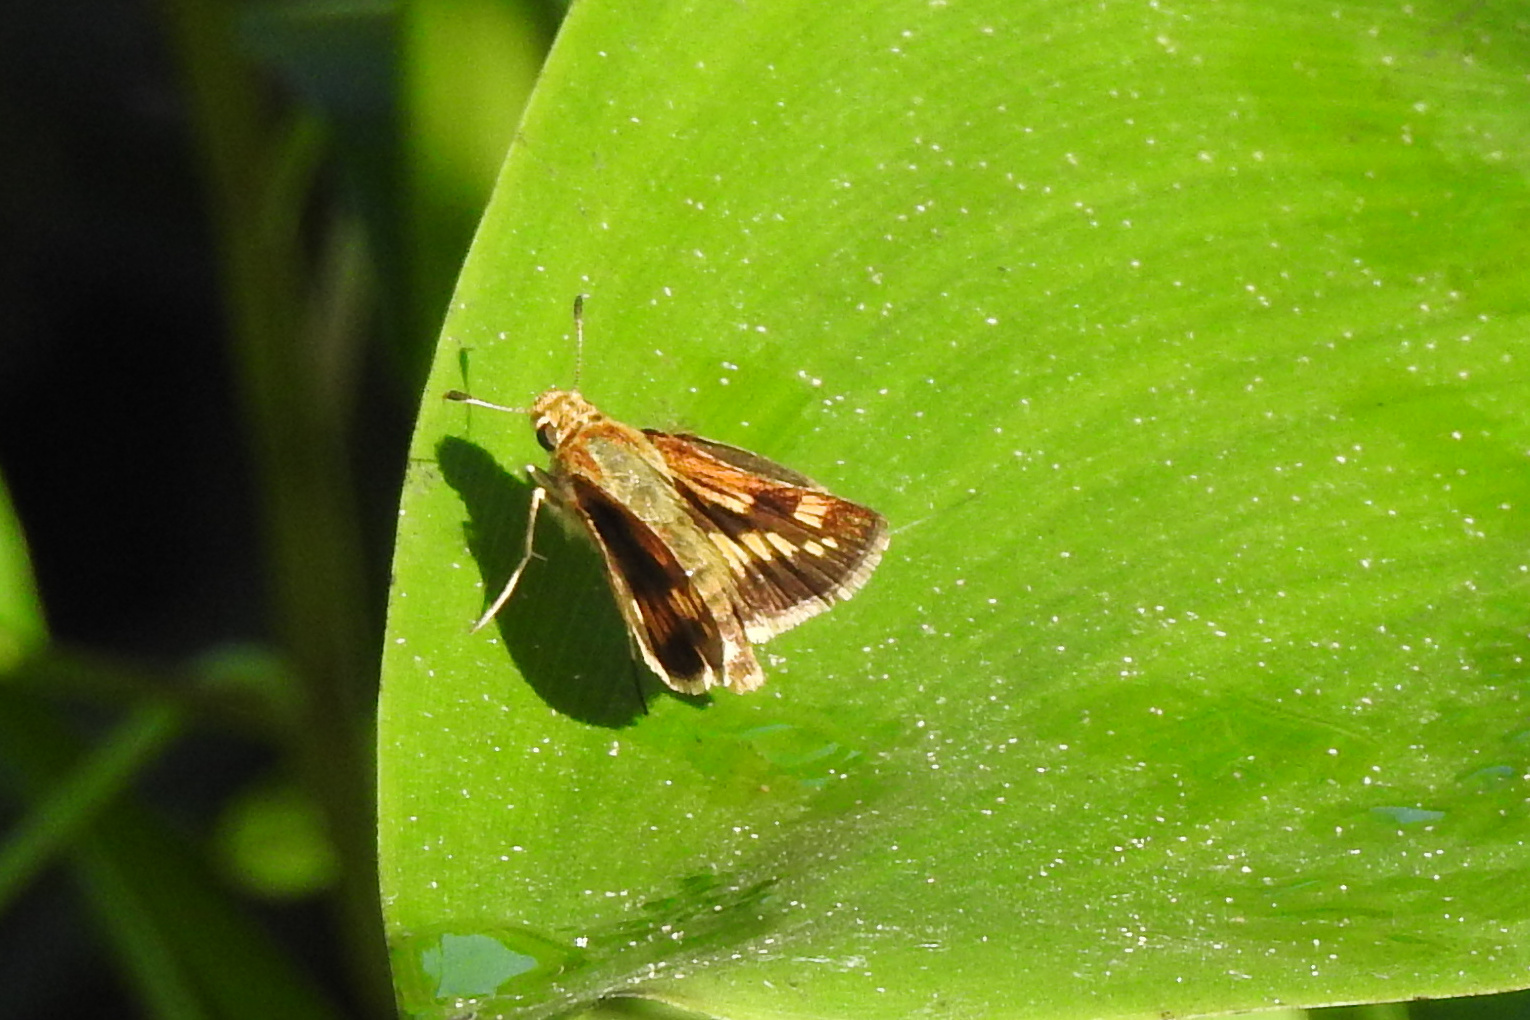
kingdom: Animalia
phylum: Arthropoda
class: Insecta
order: Lepidoptera
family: Hesperiidae
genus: Polites
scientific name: Polites coras
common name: Peck's skipper
